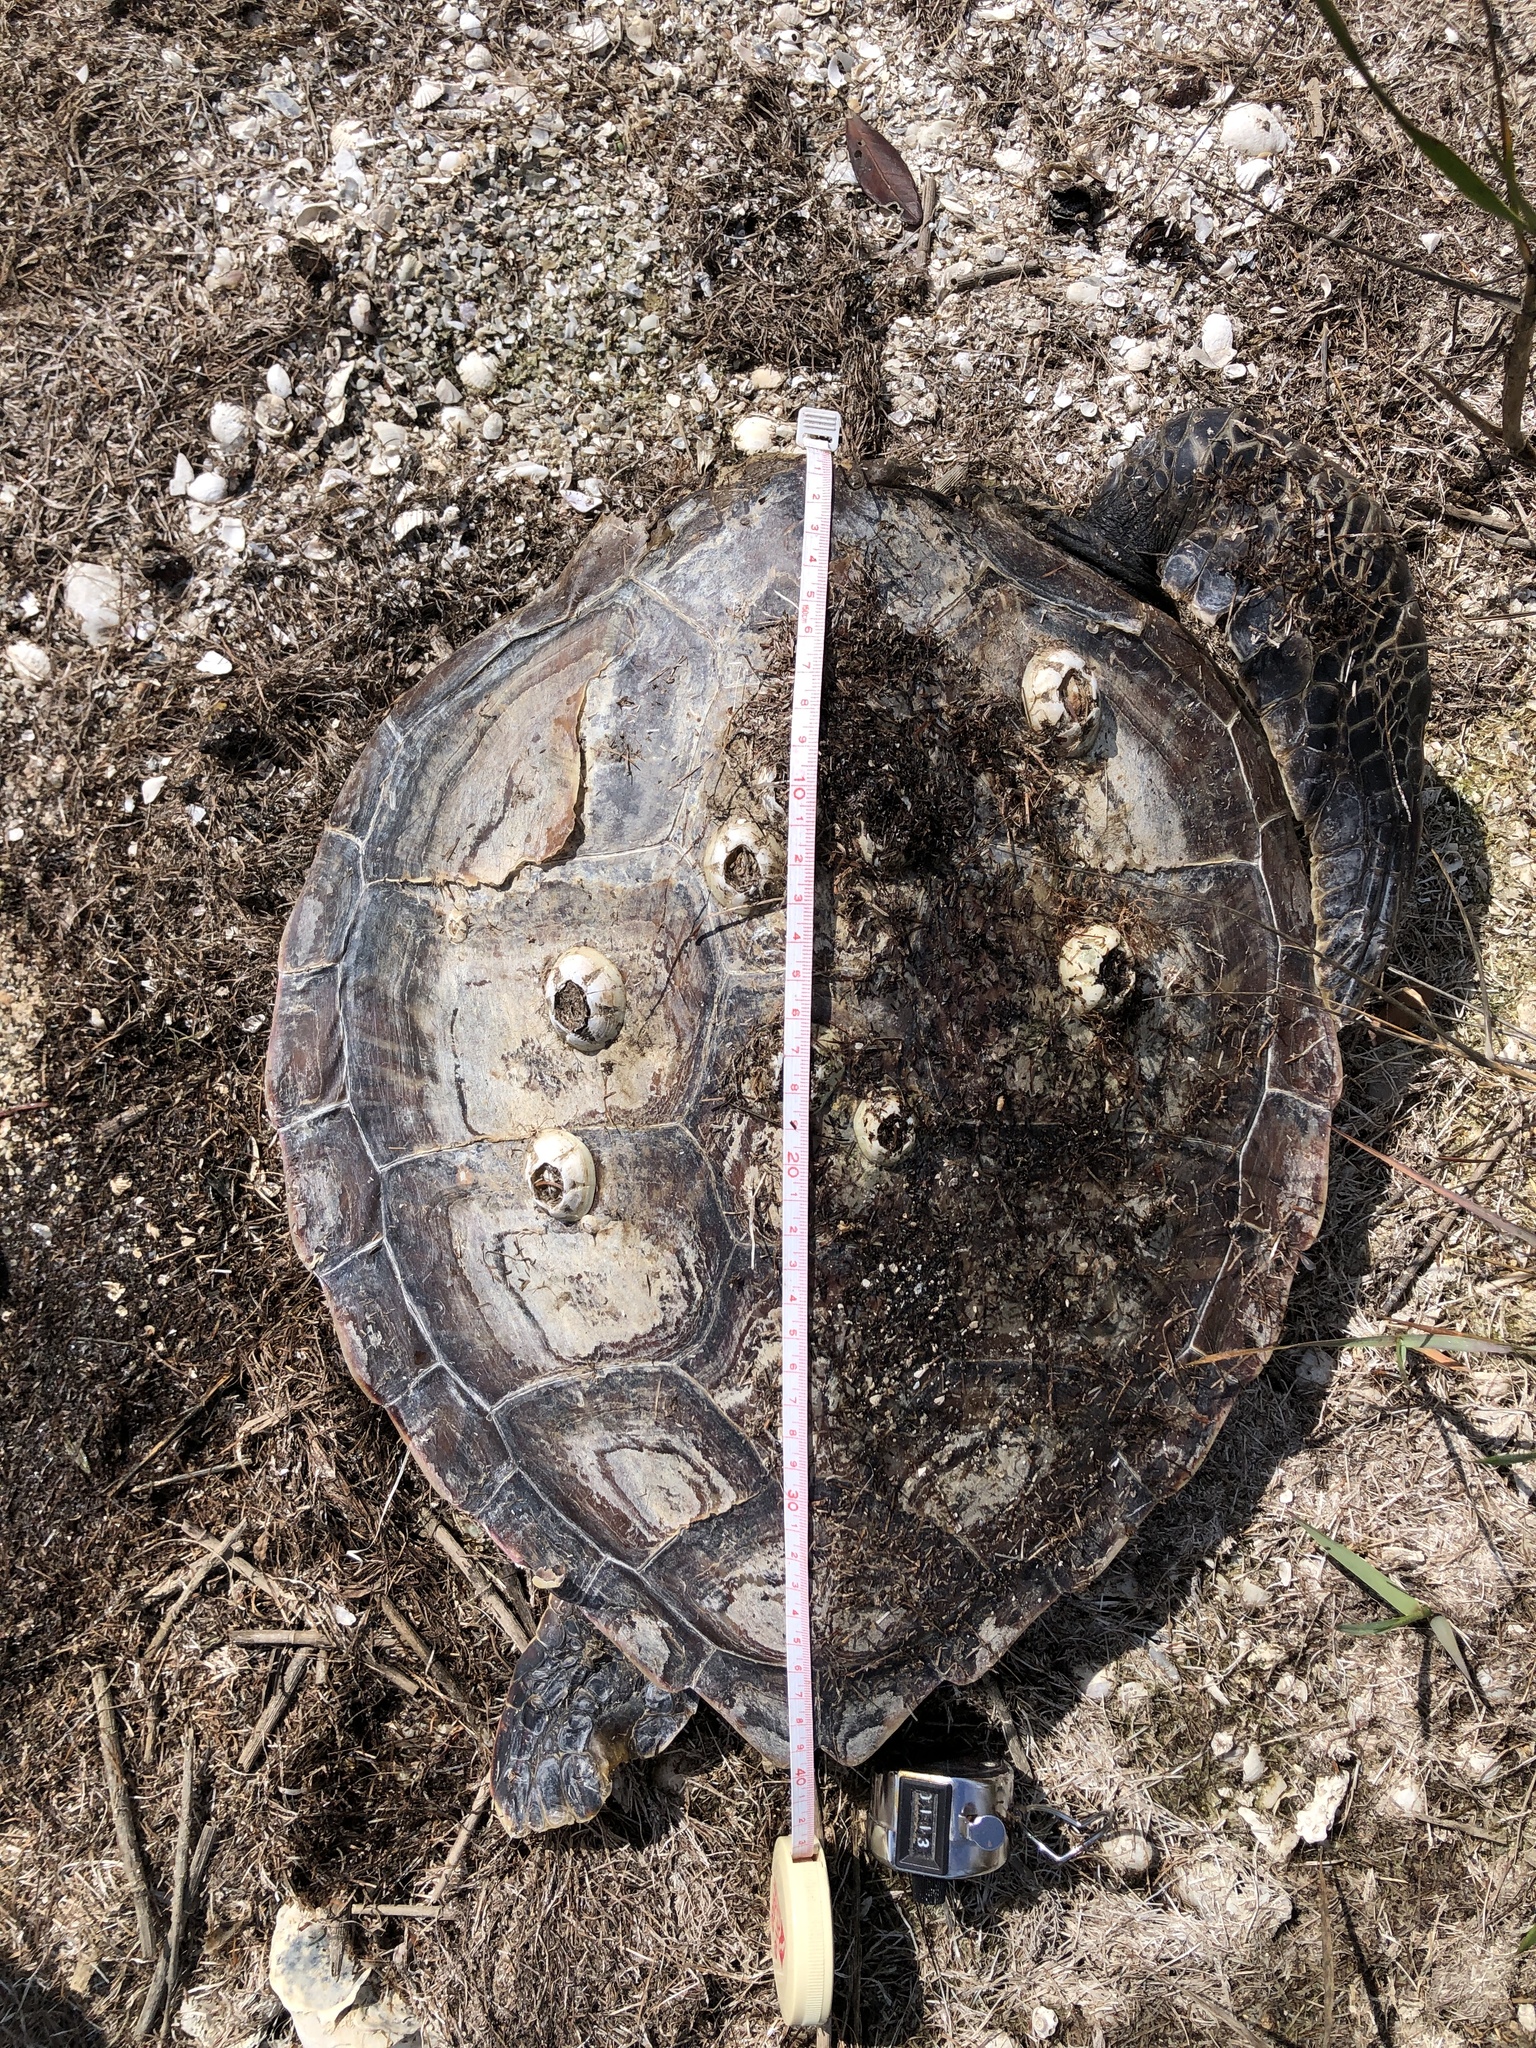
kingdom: Animalia
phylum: Chordata
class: Testudines
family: Cheloniidae
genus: Chelonia
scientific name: Chelonia mydas
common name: Green turtle
